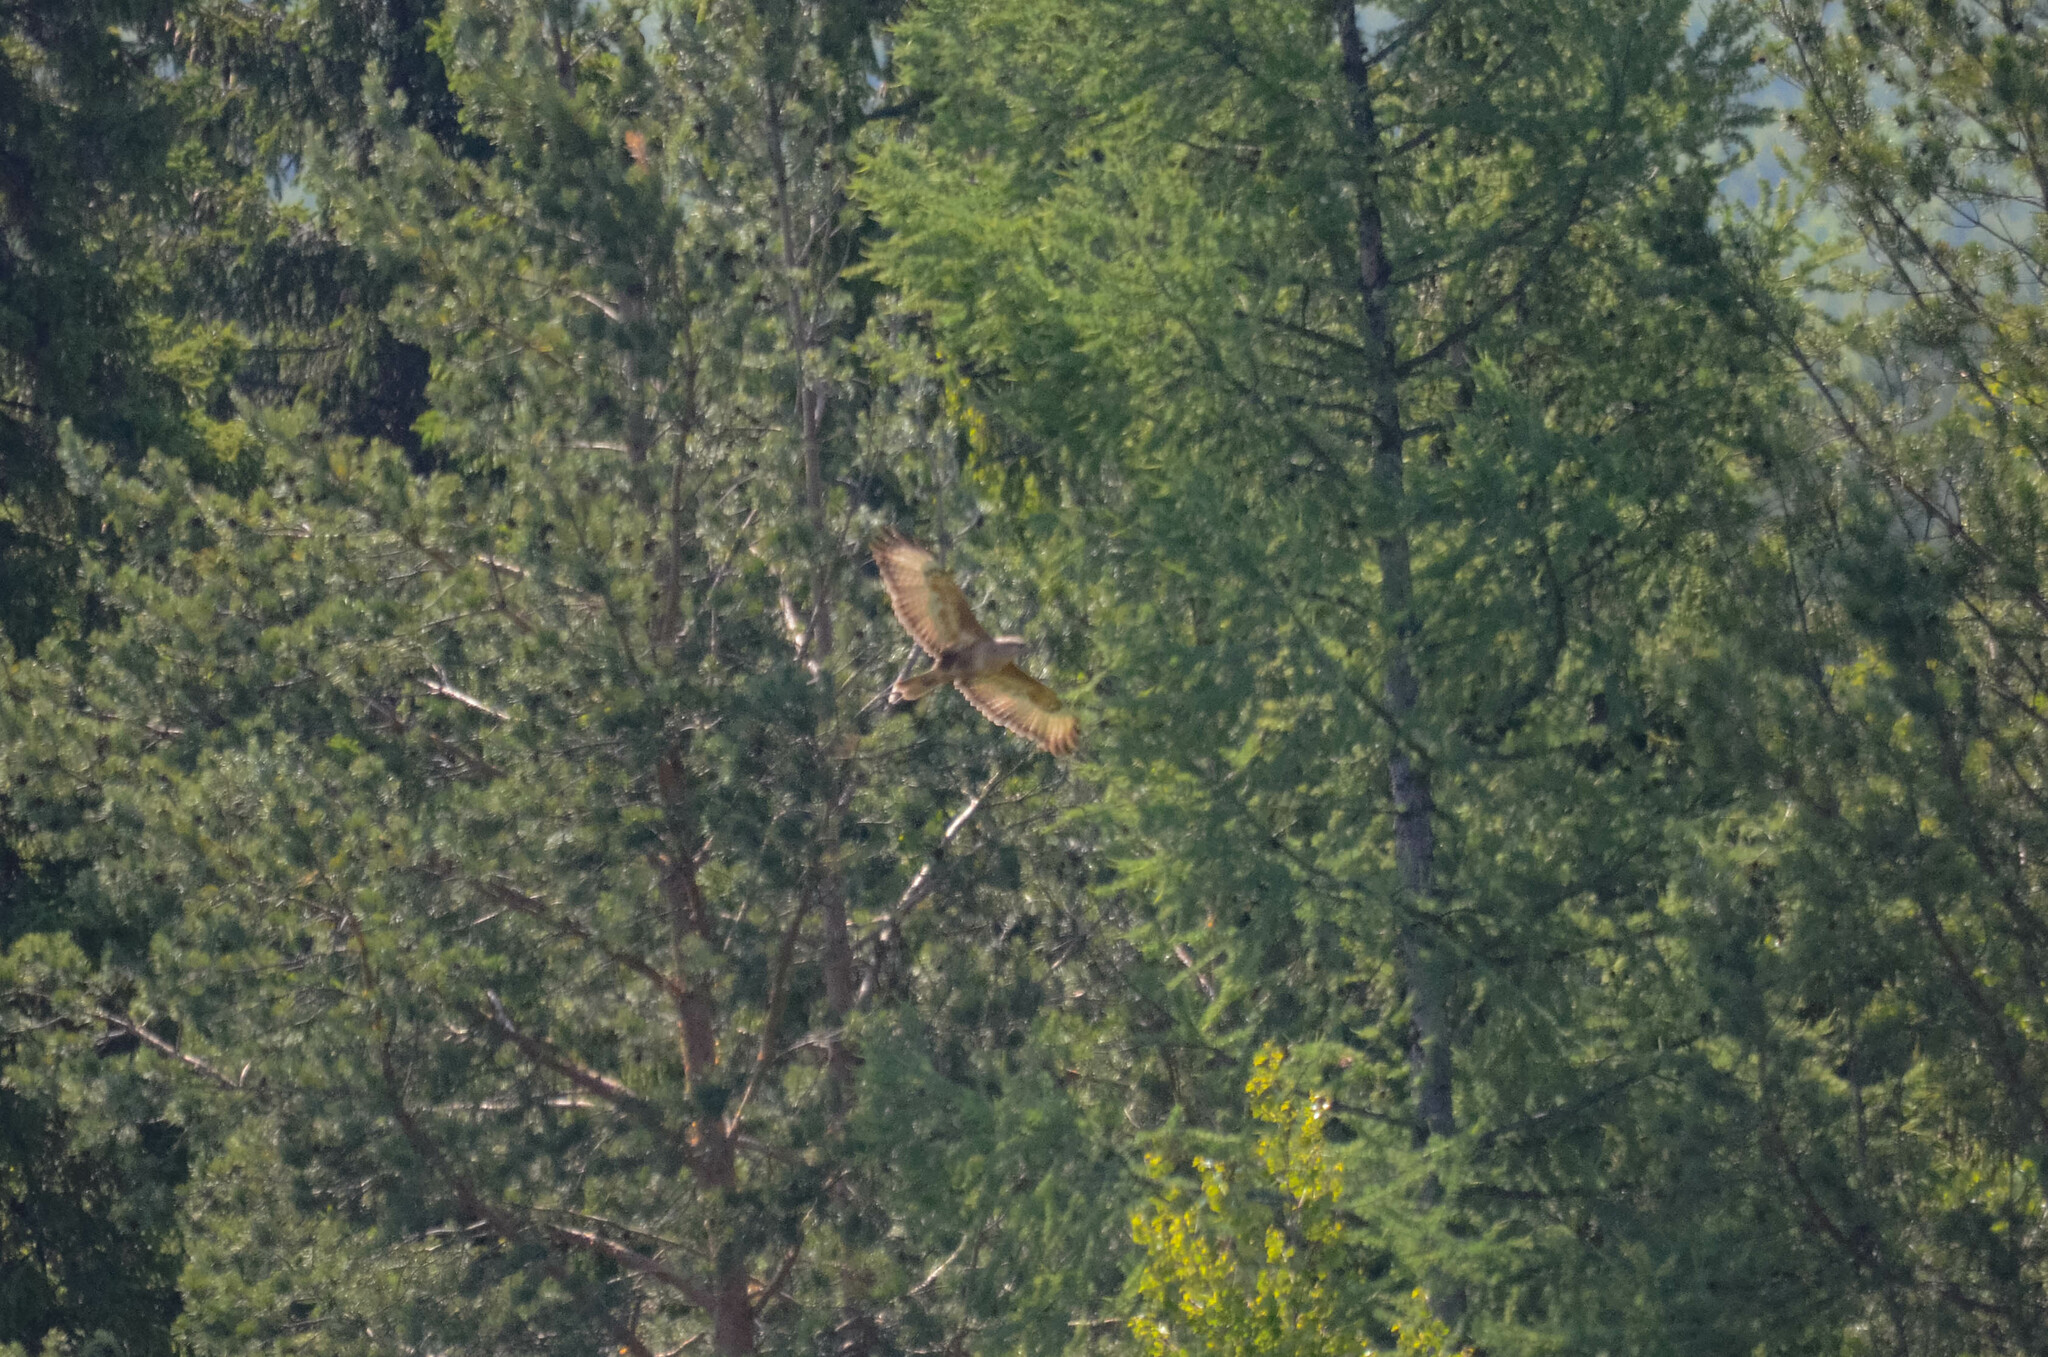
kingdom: Animalia
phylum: Chordata
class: Aves
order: Accipitriformes
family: Accipitridae
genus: Buteo
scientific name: Buteo buteo
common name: Common buzzard
